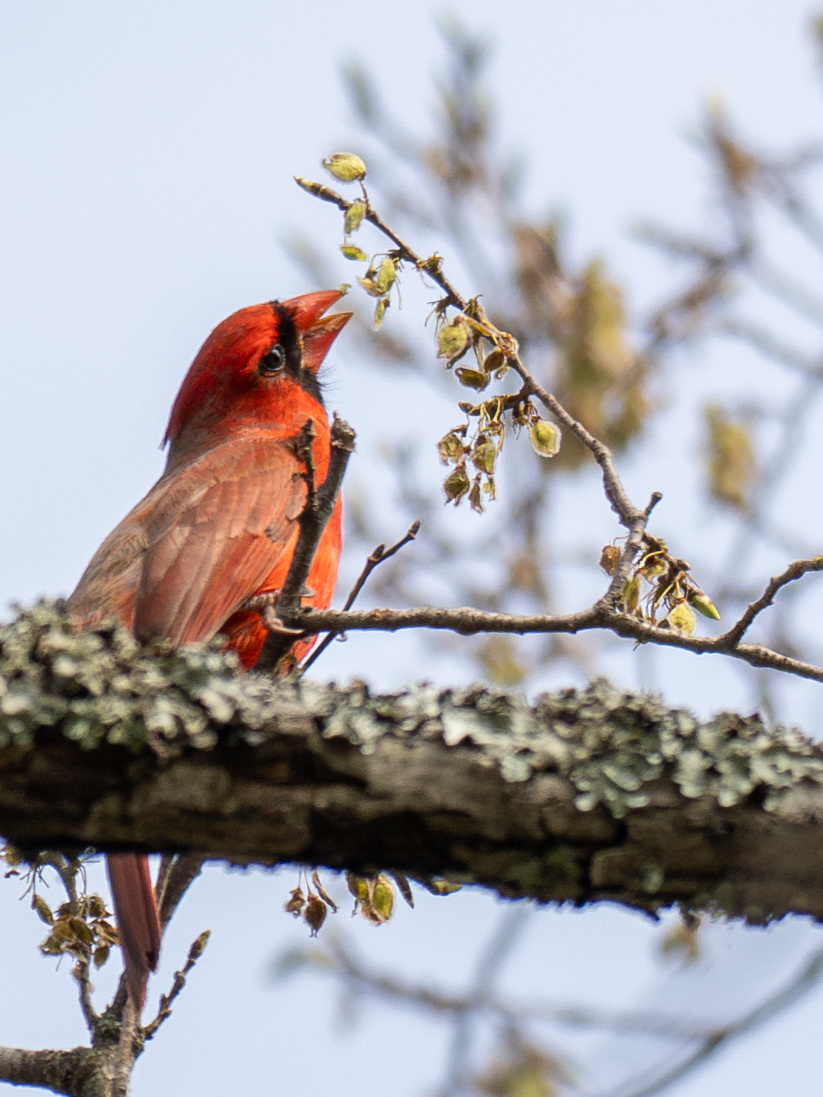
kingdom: Animalia
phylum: Chordata
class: Aves
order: Passeriformes
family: Cardinalidae
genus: Cardinalis
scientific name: Cardinalis cardinalis
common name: Northern cardinal
